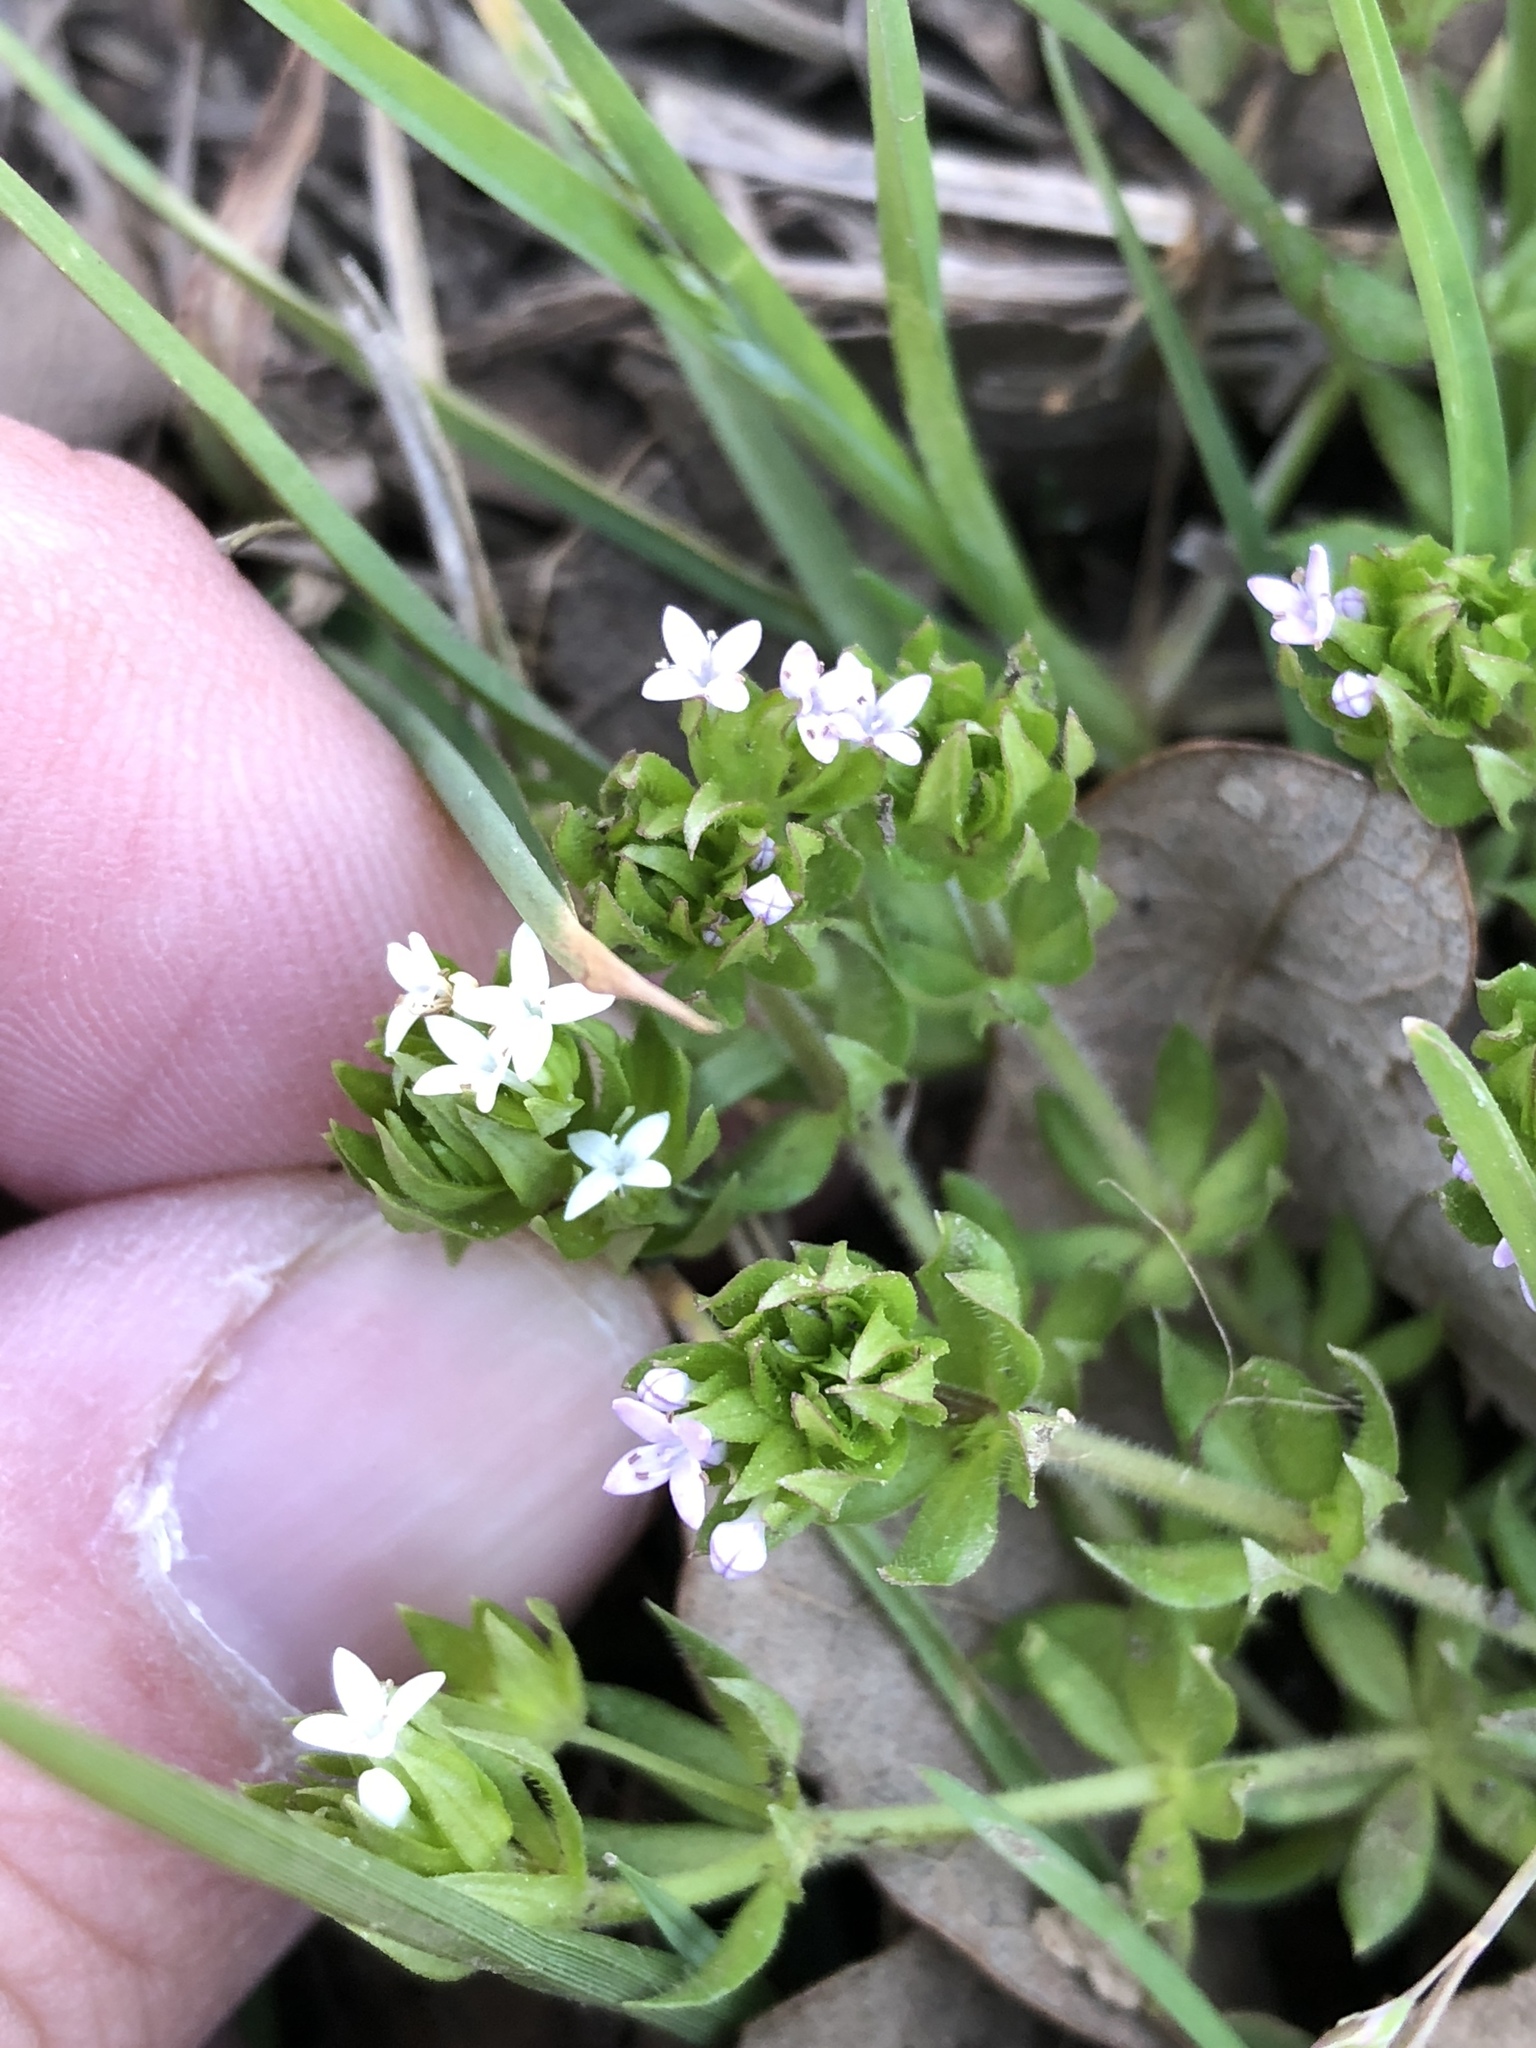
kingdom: Plantae
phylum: Tracheophyta
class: Magnoliopsida
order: Gentianales
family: Rubiaceae
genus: Sherardia
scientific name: Sherardia arvensis
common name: Field madder
